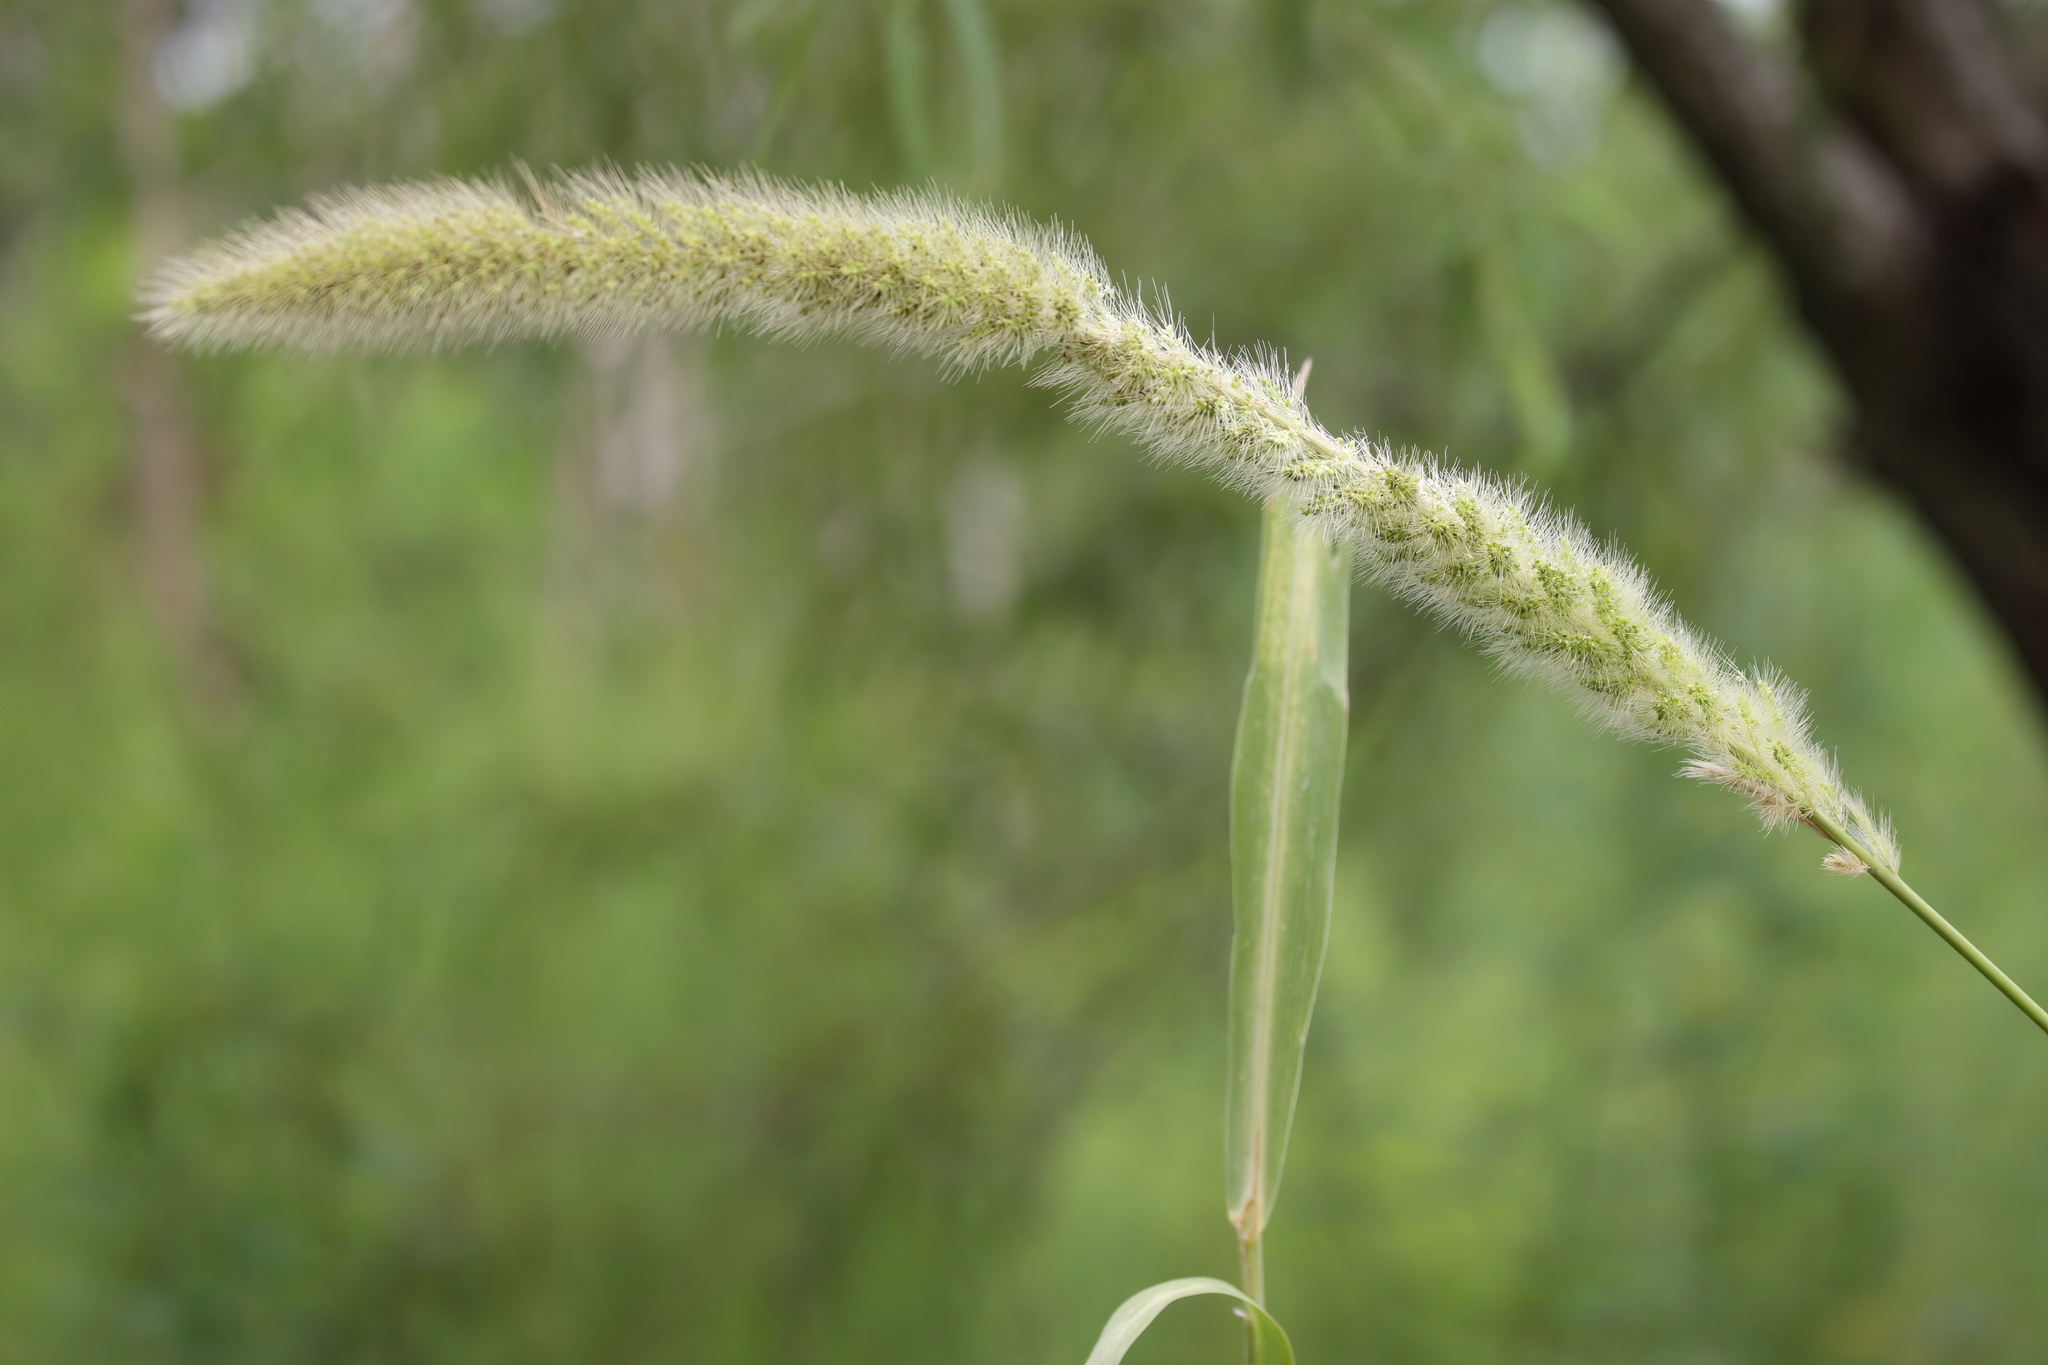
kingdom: Plantae
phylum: Tracheophyta
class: Liliopsida
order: Poales
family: Poaceae
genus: Setaria
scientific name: Setaria magna
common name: Giant bristle grass
